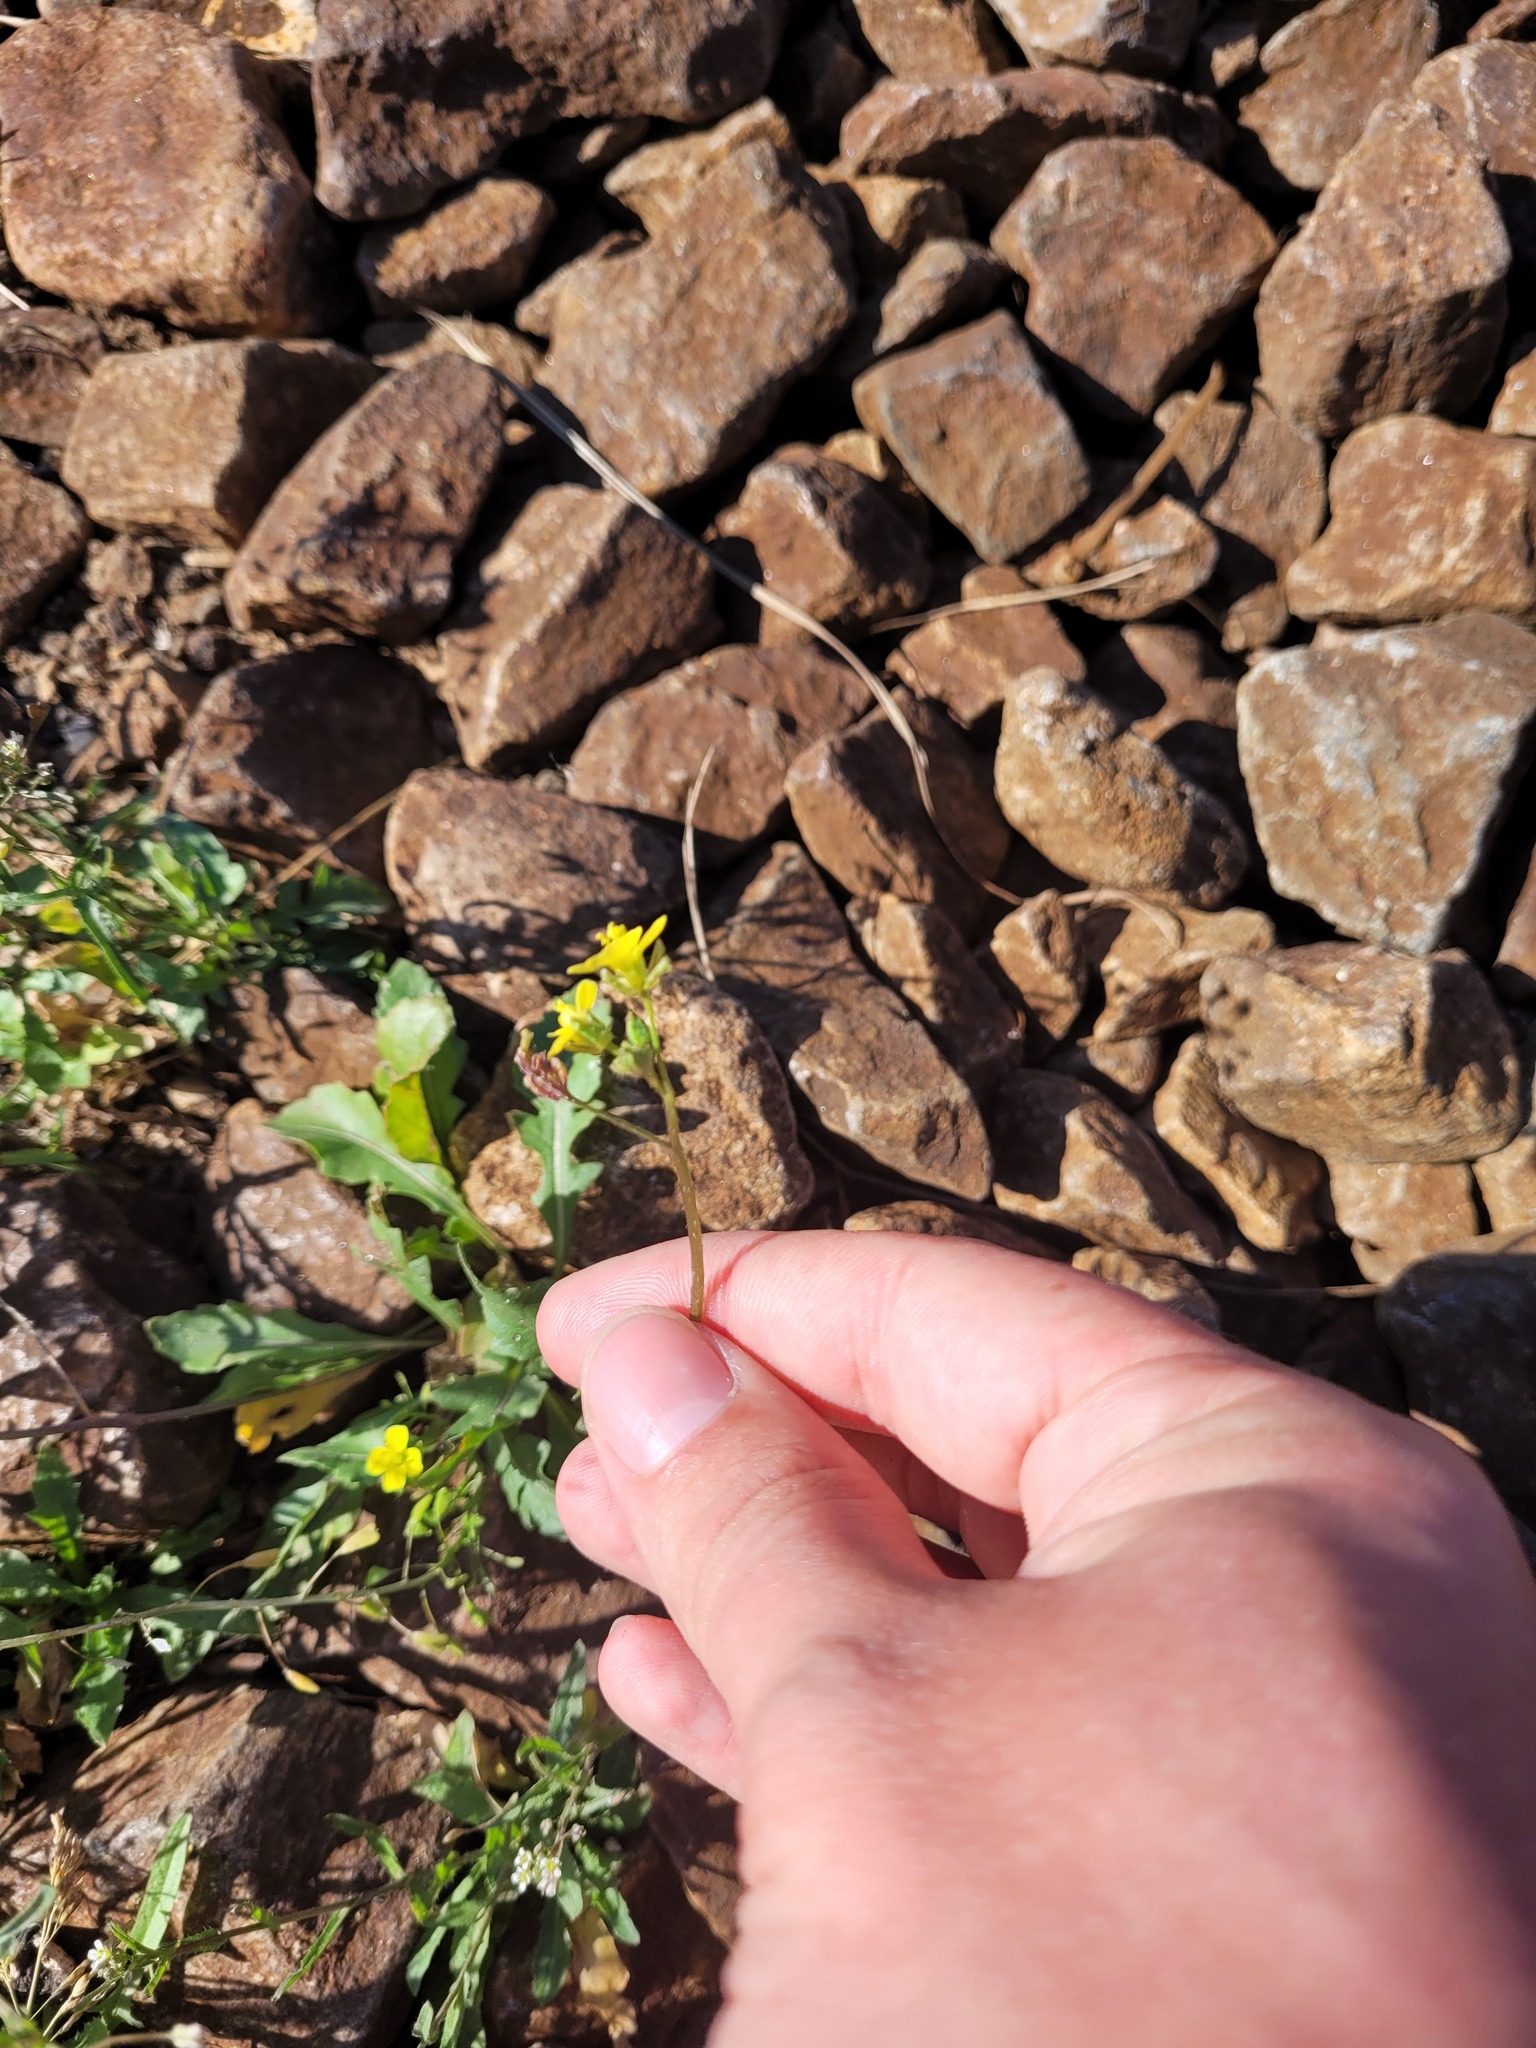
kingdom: Plantae
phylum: Tracheophyta
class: Magnoliopsida
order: Brassicales
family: Brassicaceae
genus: Diplotaxis
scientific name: Diplotaxis muralis
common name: Annual wall-rocket
